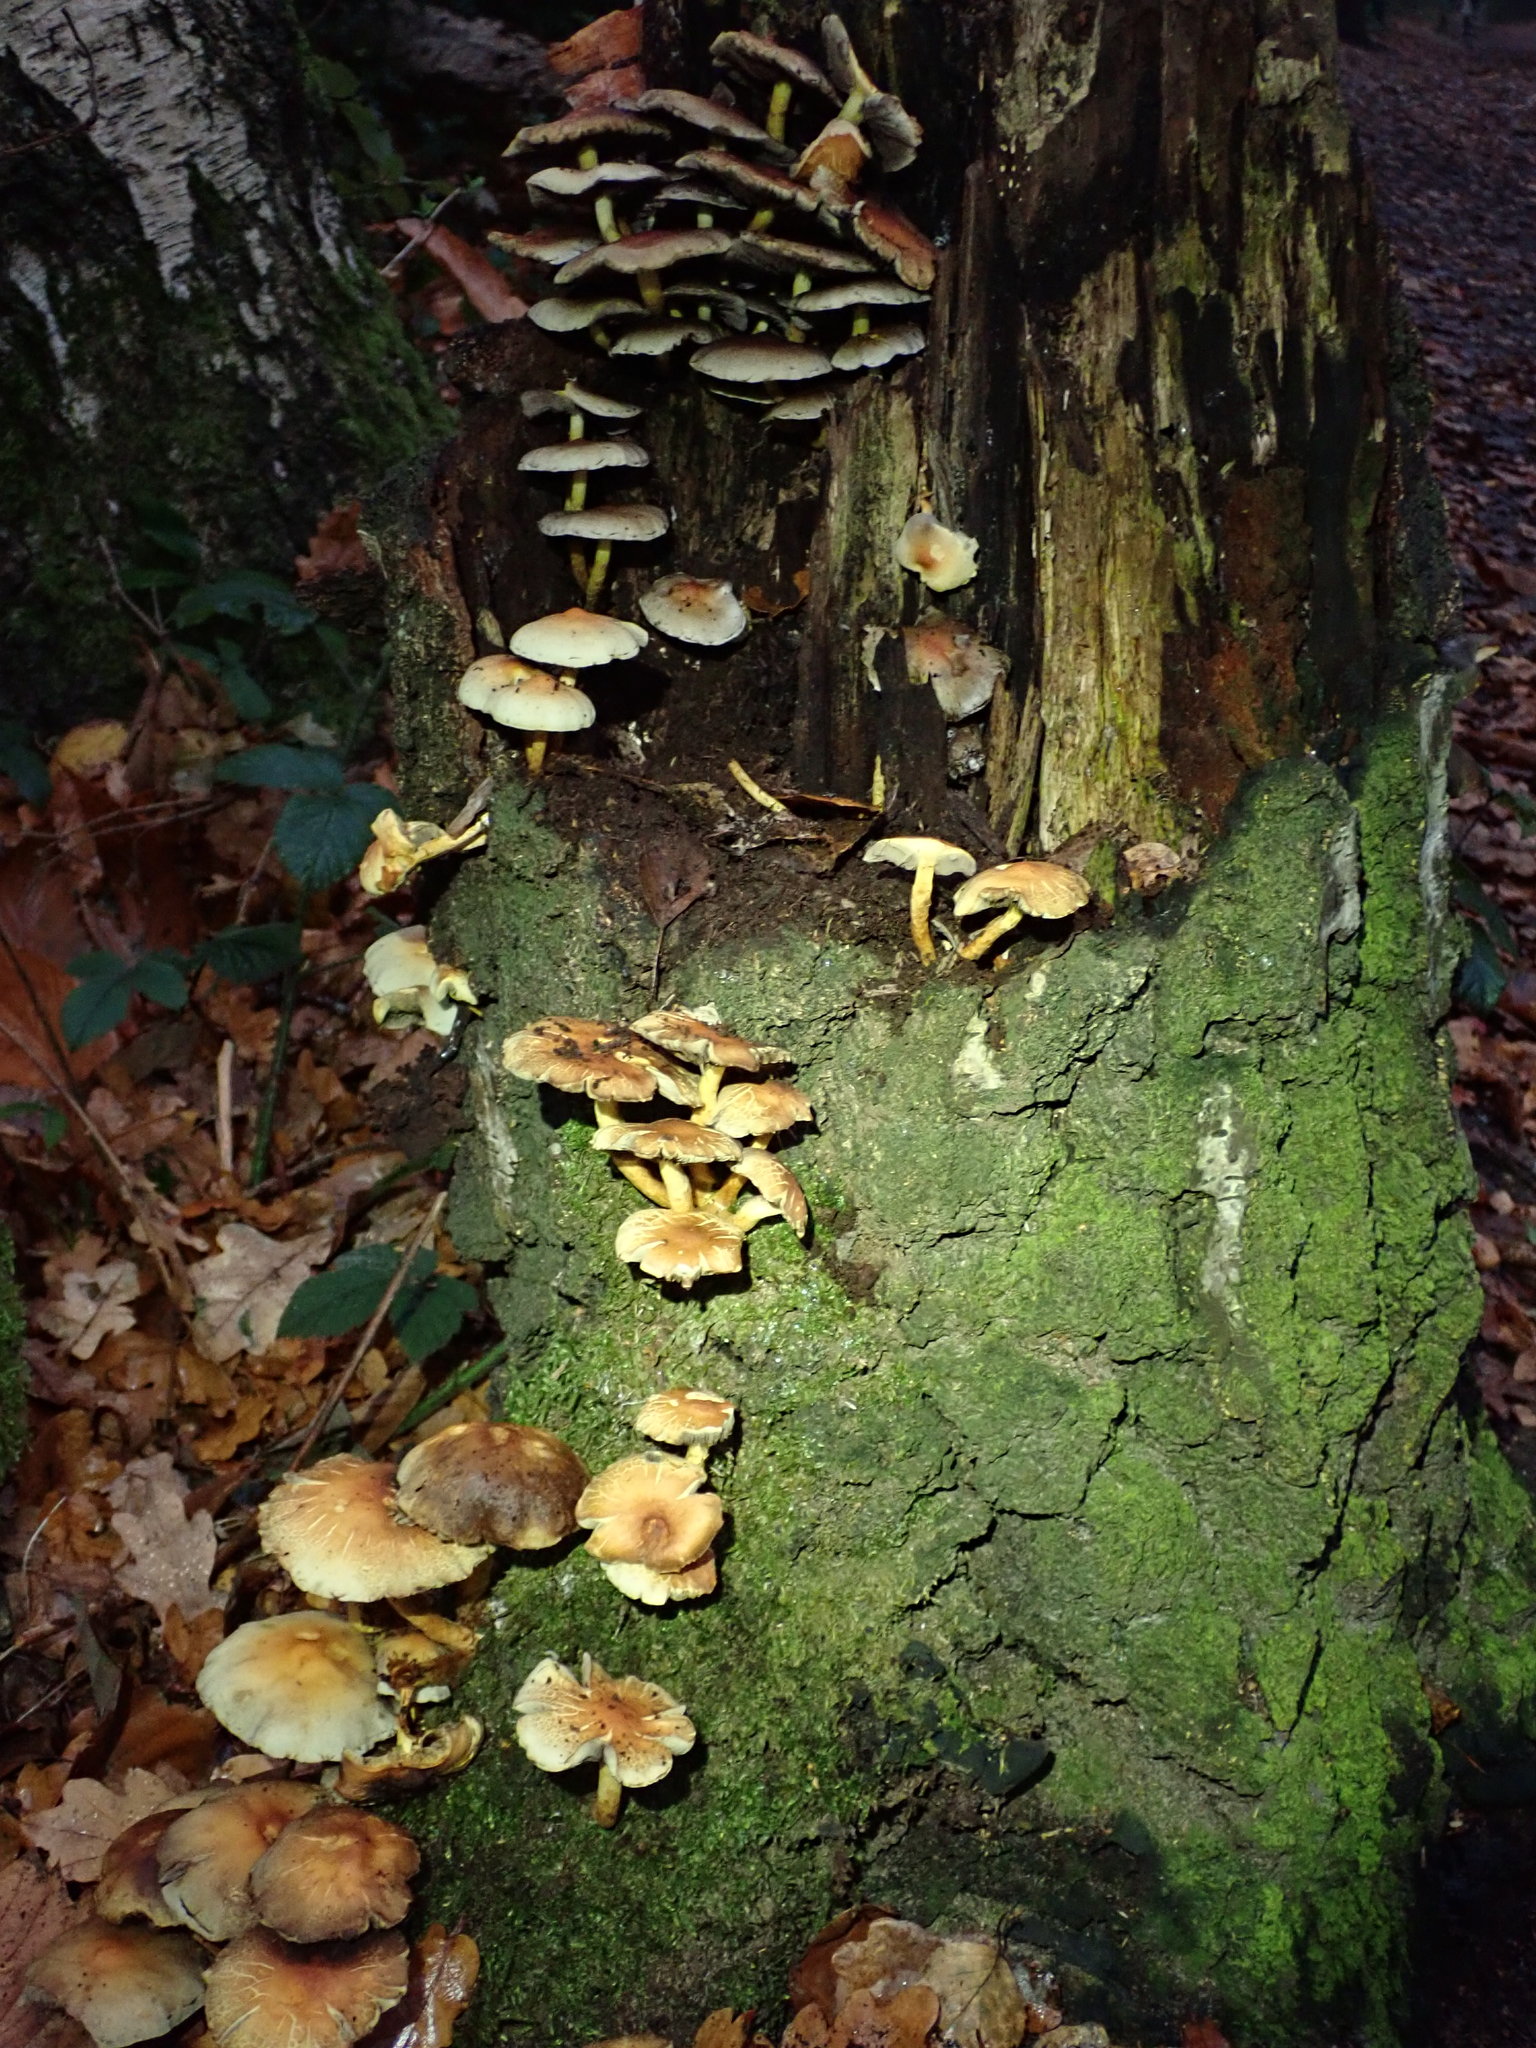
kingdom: Fungi
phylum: Basidiomycota
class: Agaricomycetes
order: Agaricales
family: Strophariaceae
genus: Hypholoma
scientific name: Hypholoma fasciculare
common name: Sulphur tuft
